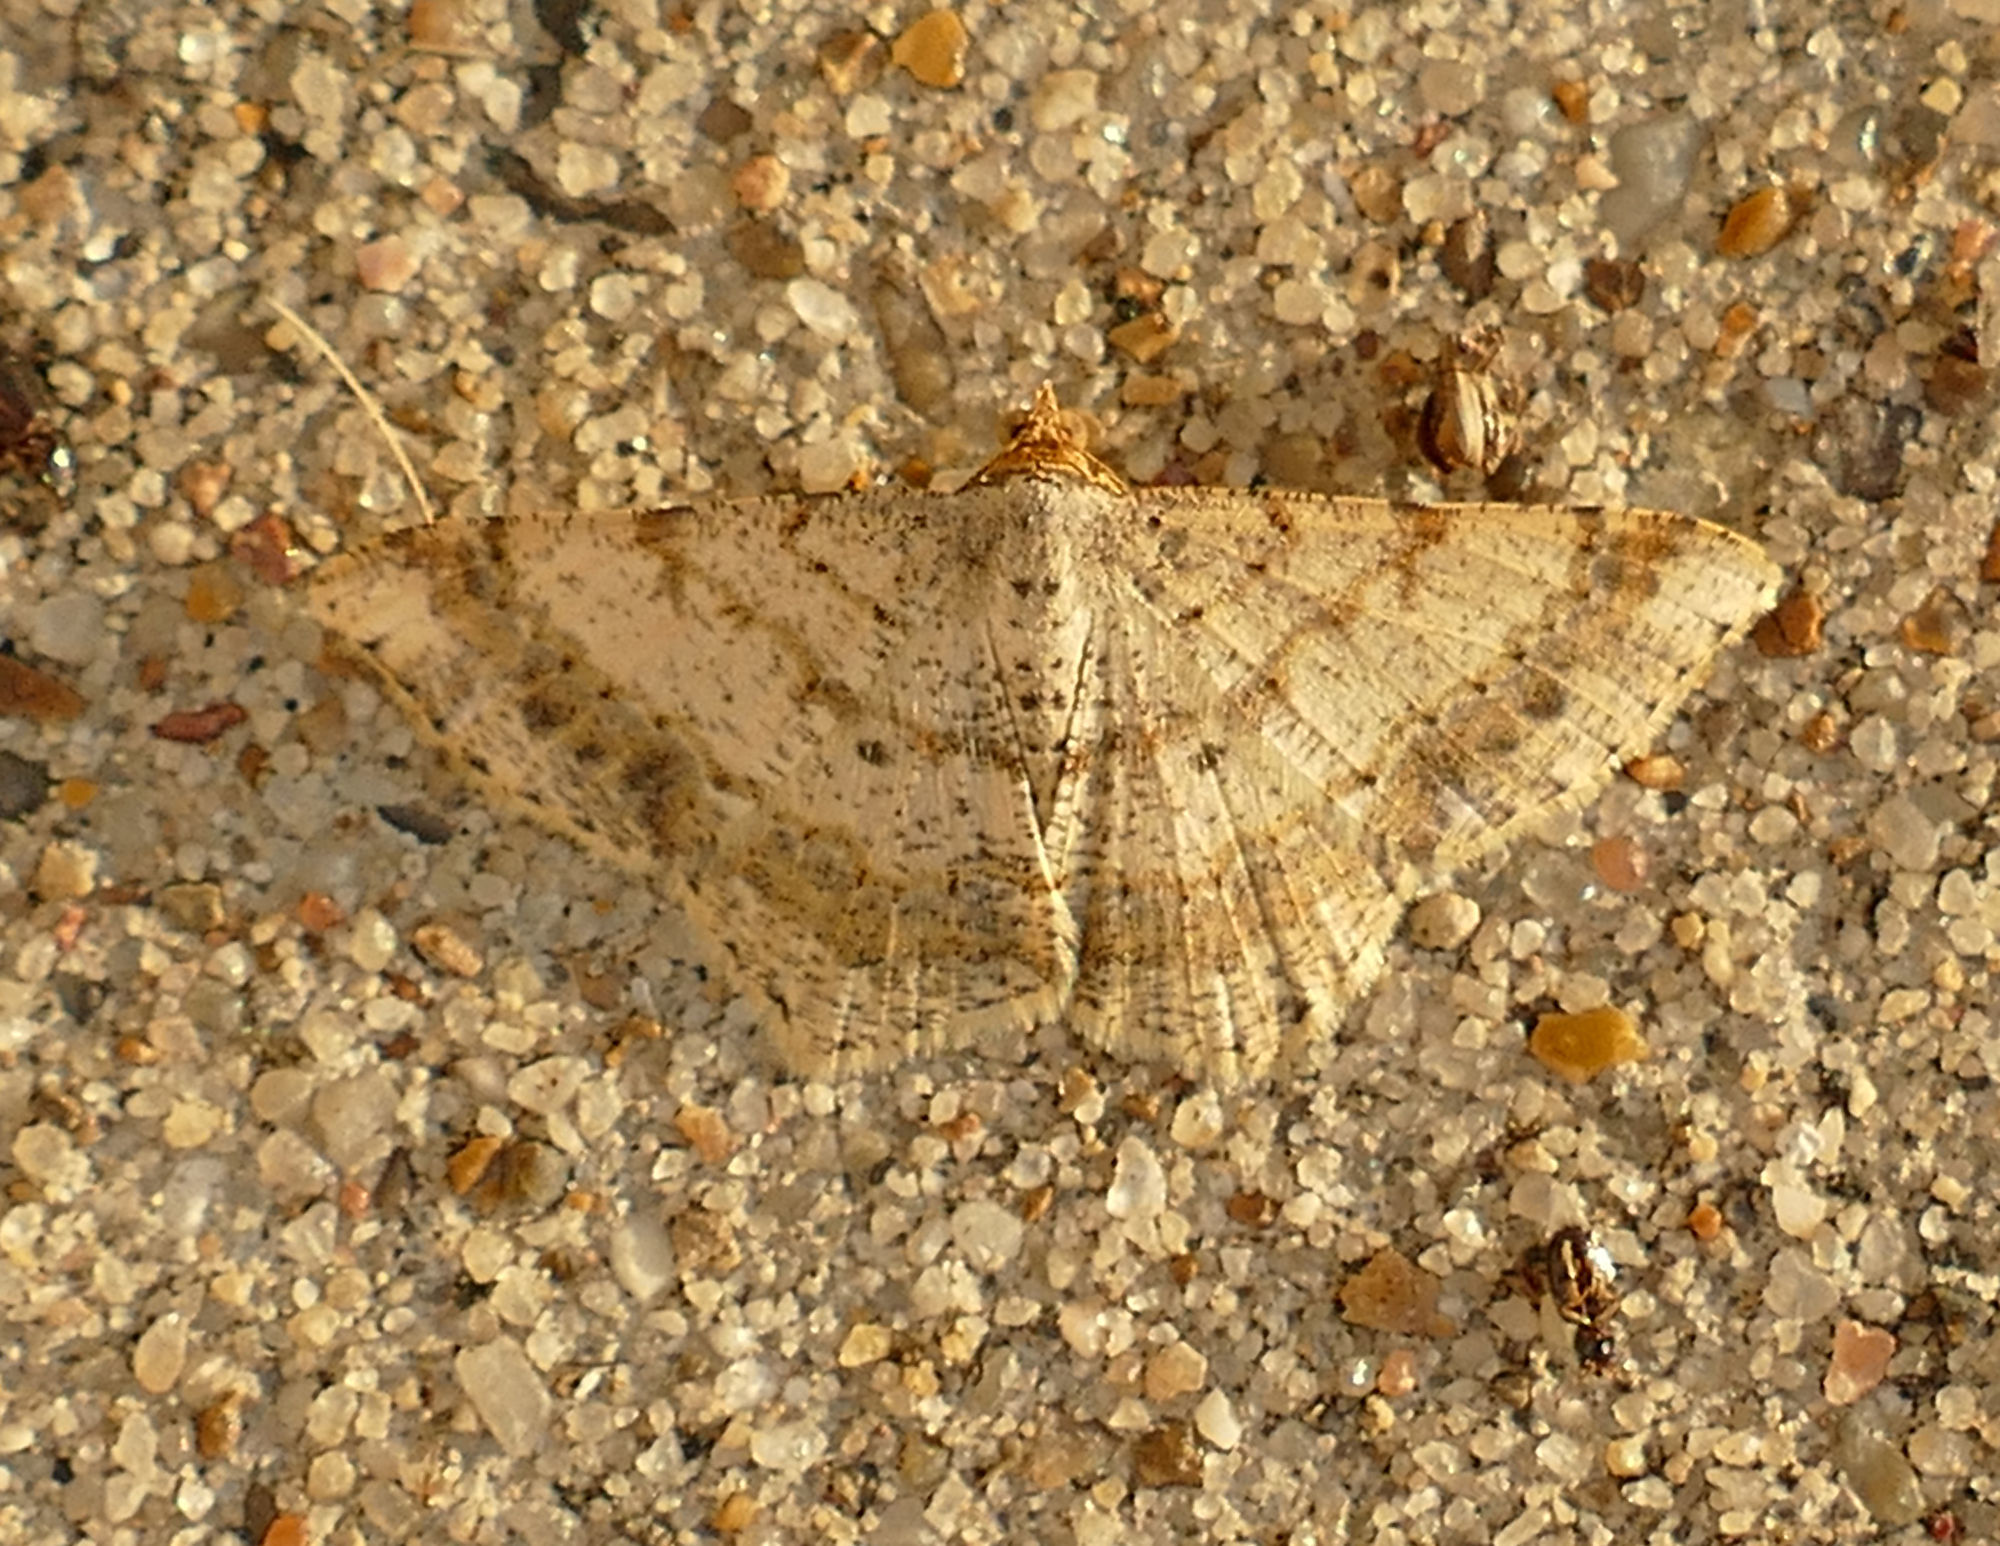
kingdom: Animalia
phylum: Arthropoda
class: Insecta
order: Lepidoptera
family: Geometridae
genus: Macaria
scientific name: Macaria abydata
